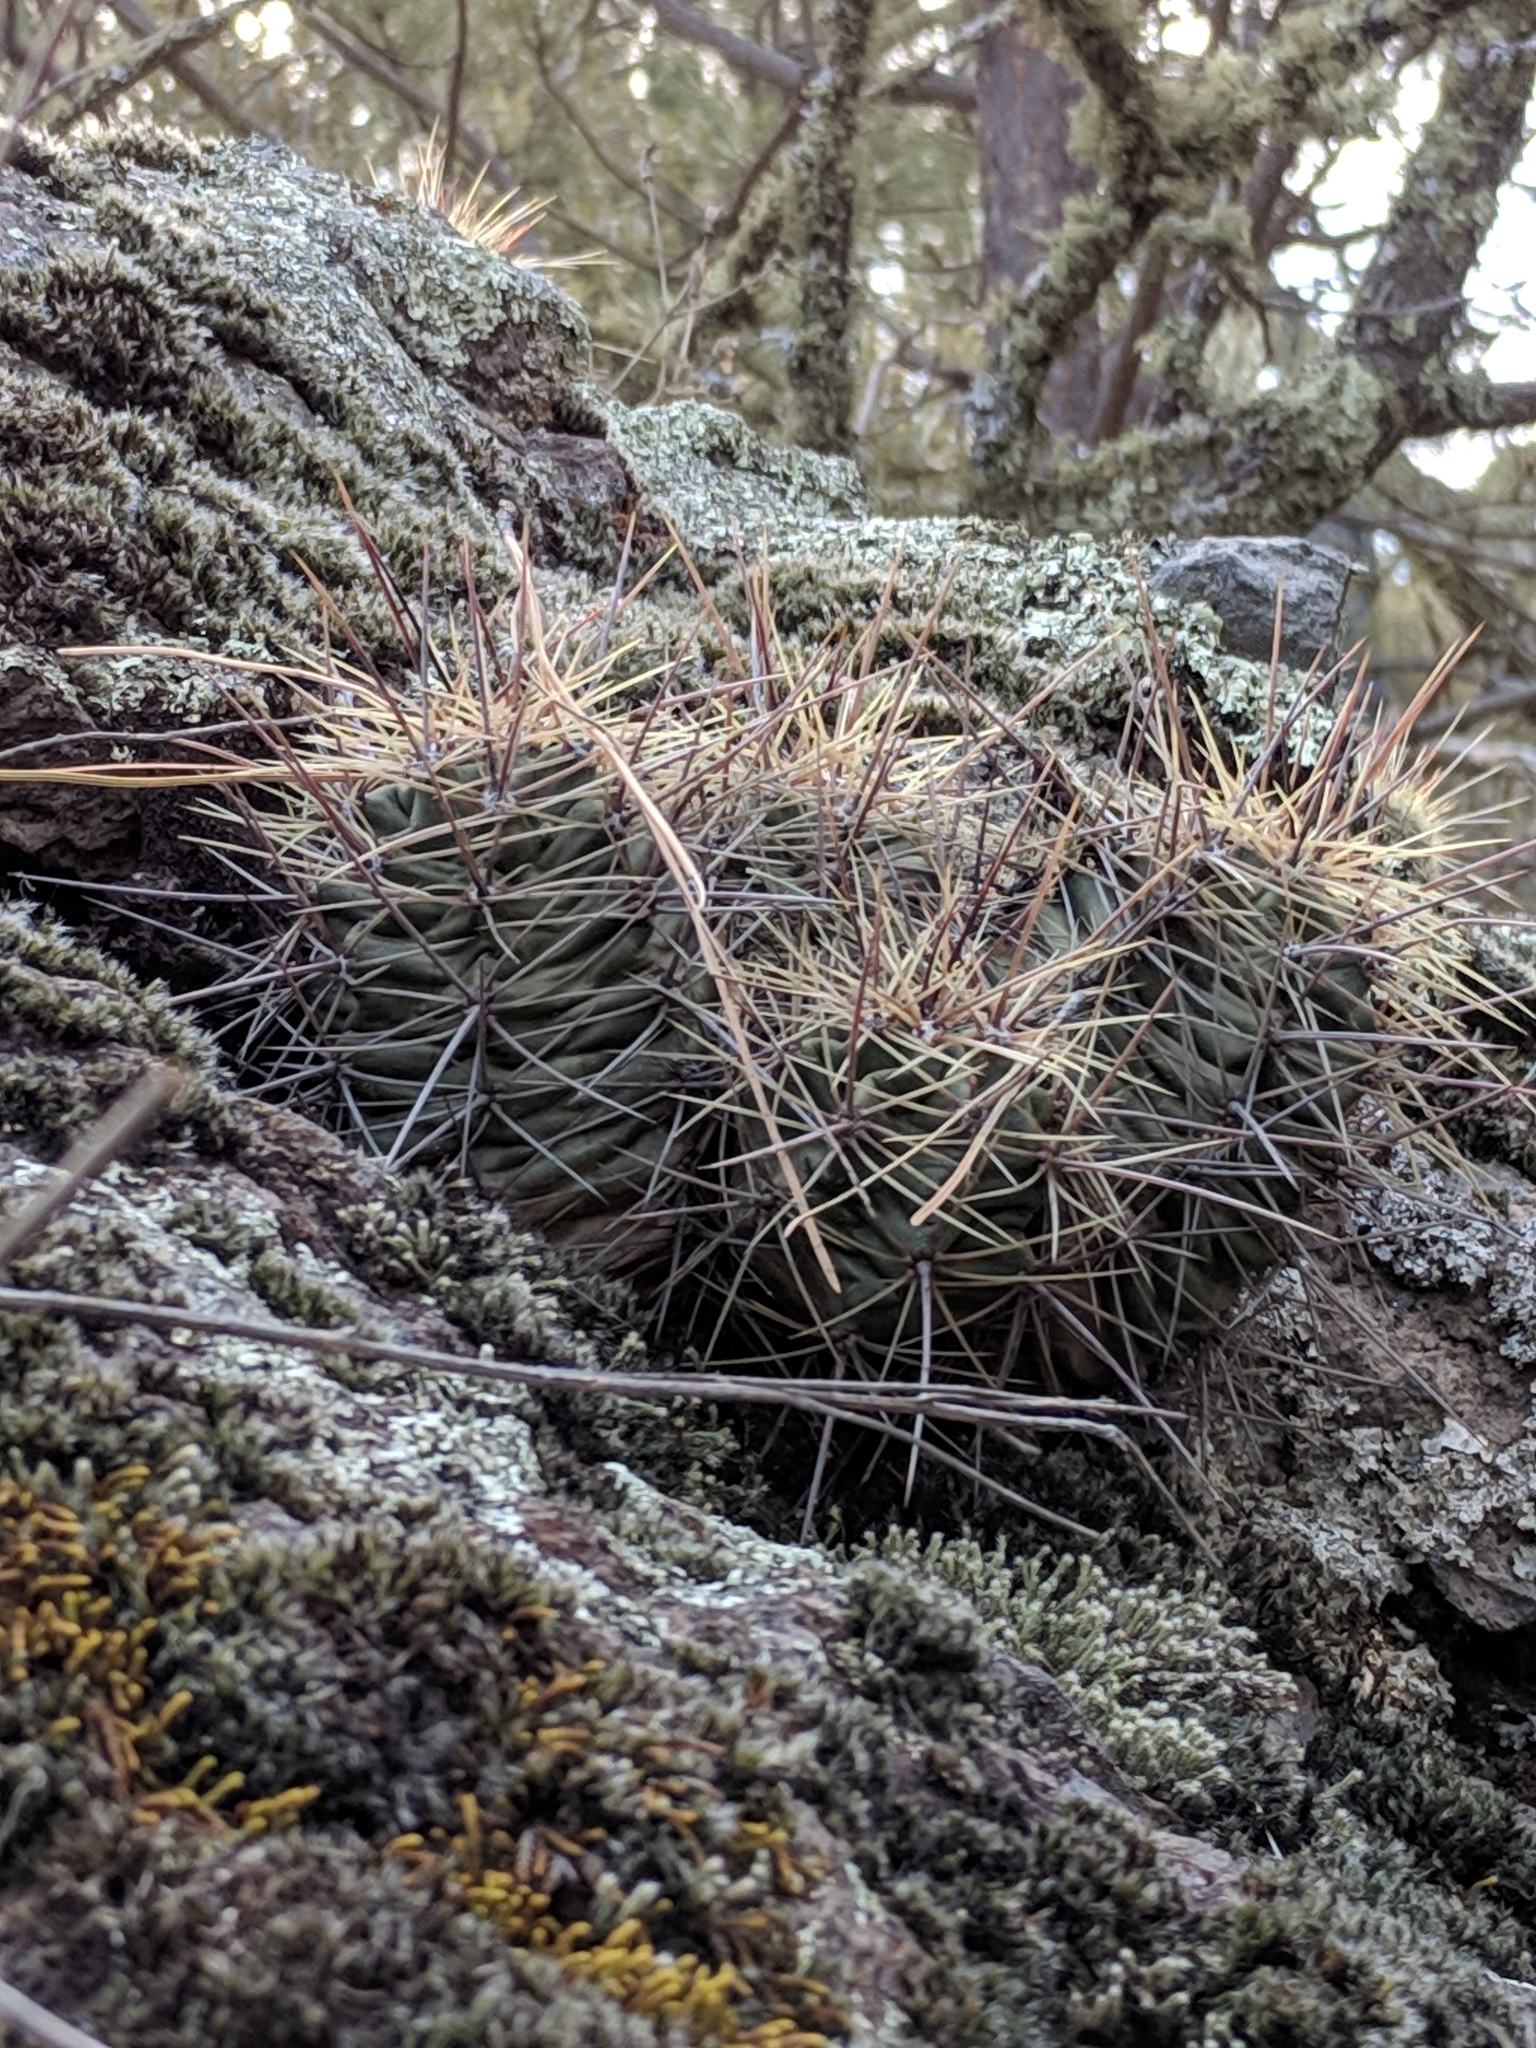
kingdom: Plantae
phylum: Tracheophyta
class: Magnoliopsida
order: Caryophyllales
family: Cactaceae
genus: Echinocereus
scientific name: Echinocereus coccineus
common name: Scarlet hedgehog cactus
